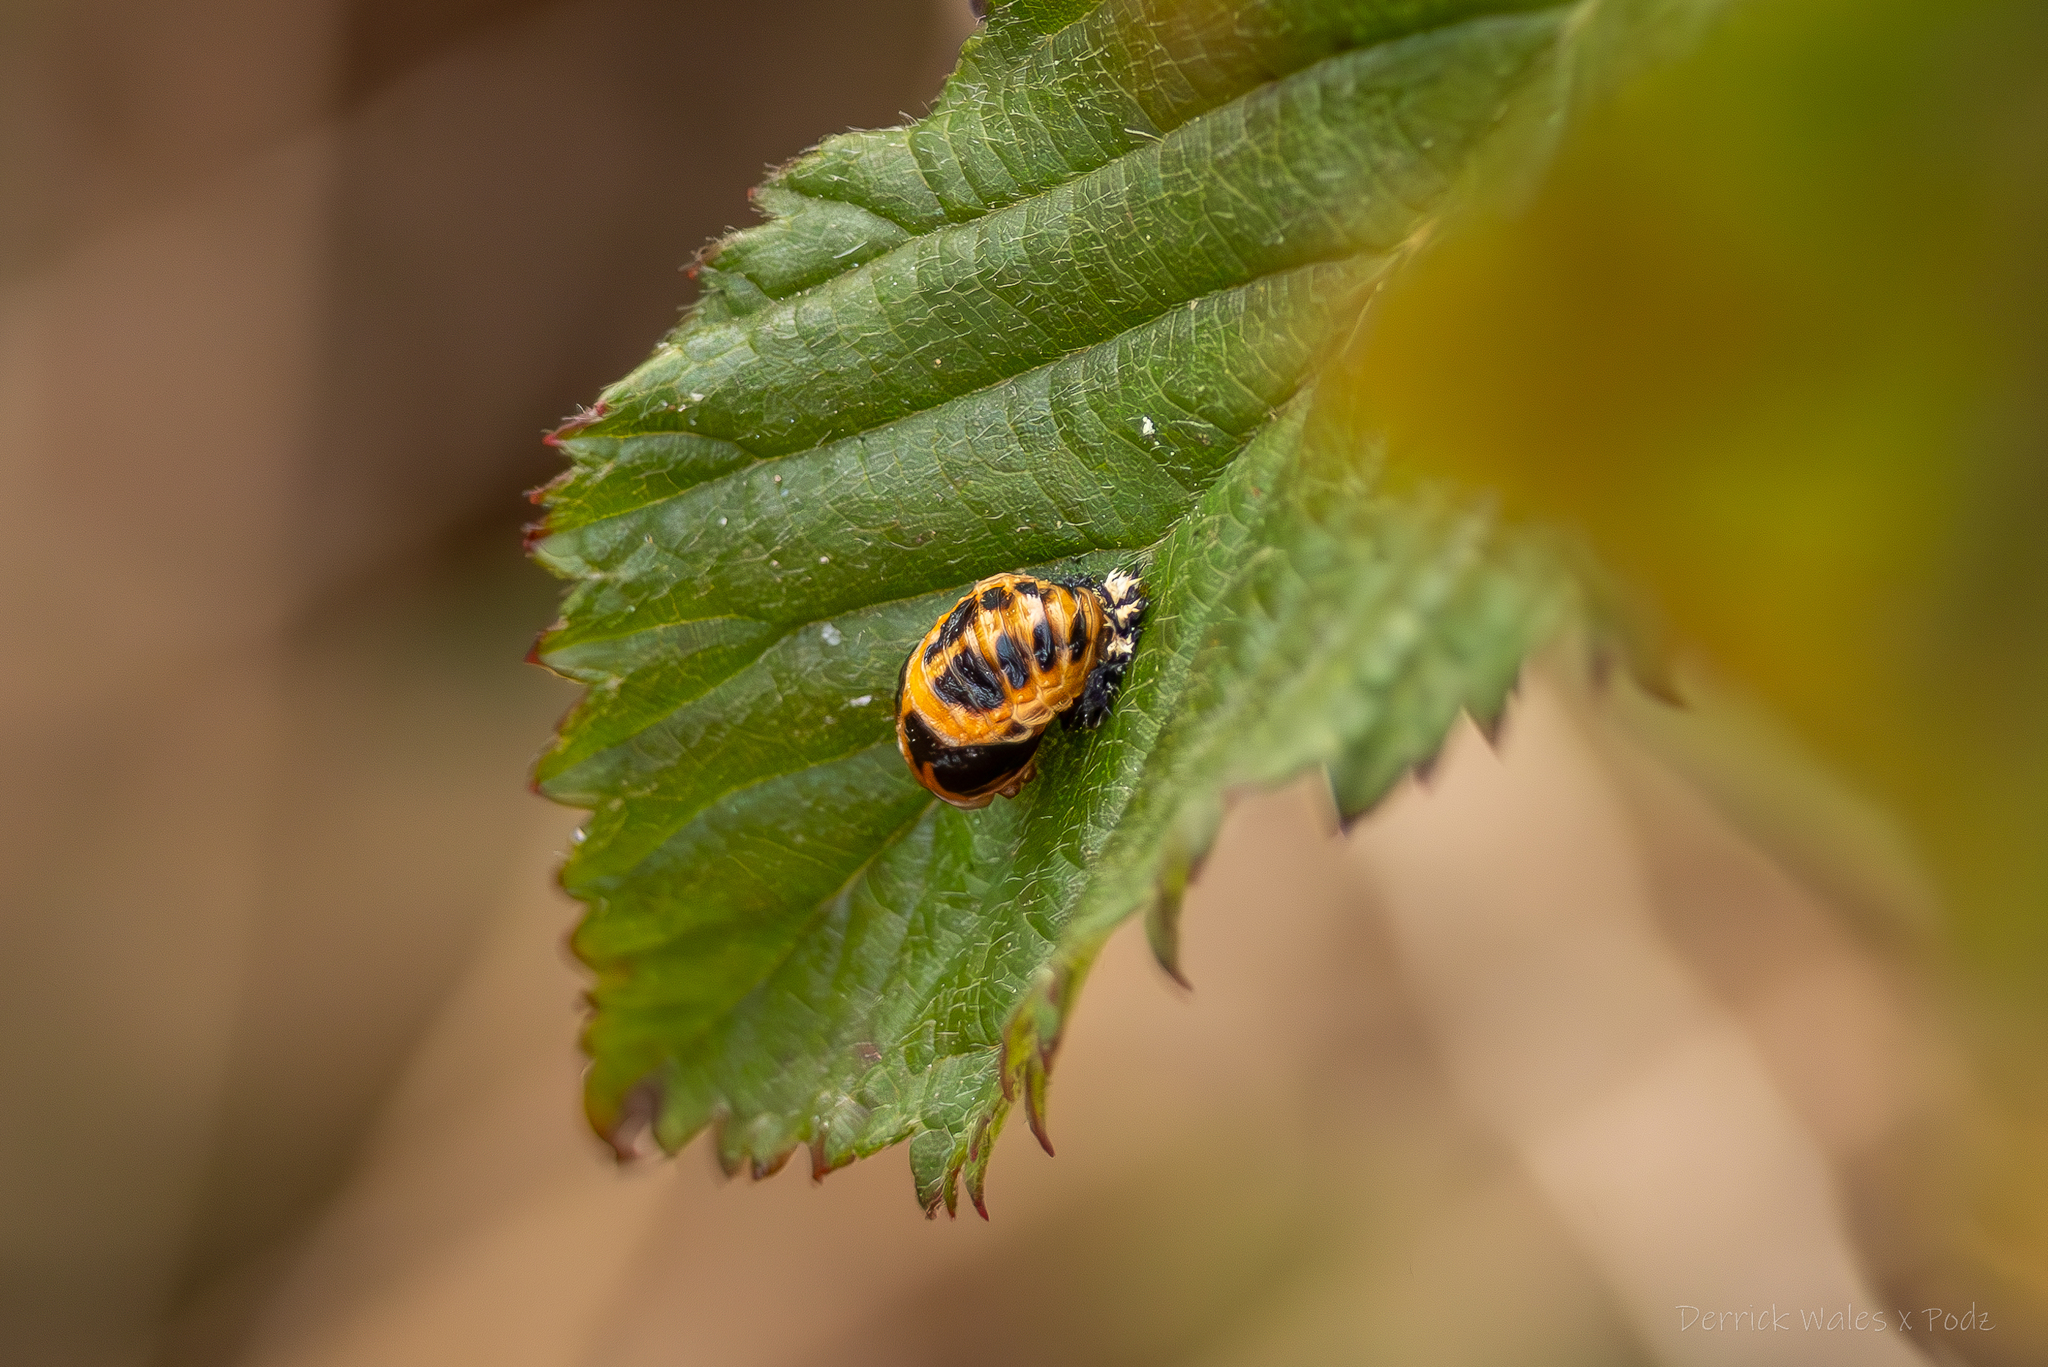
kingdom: Animalia
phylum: Arthropoda
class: Insecta
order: Coleoptera
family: Coccinellidae
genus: Harmonia
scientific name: Harmonia axyridis
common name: Harlequin ladybird
